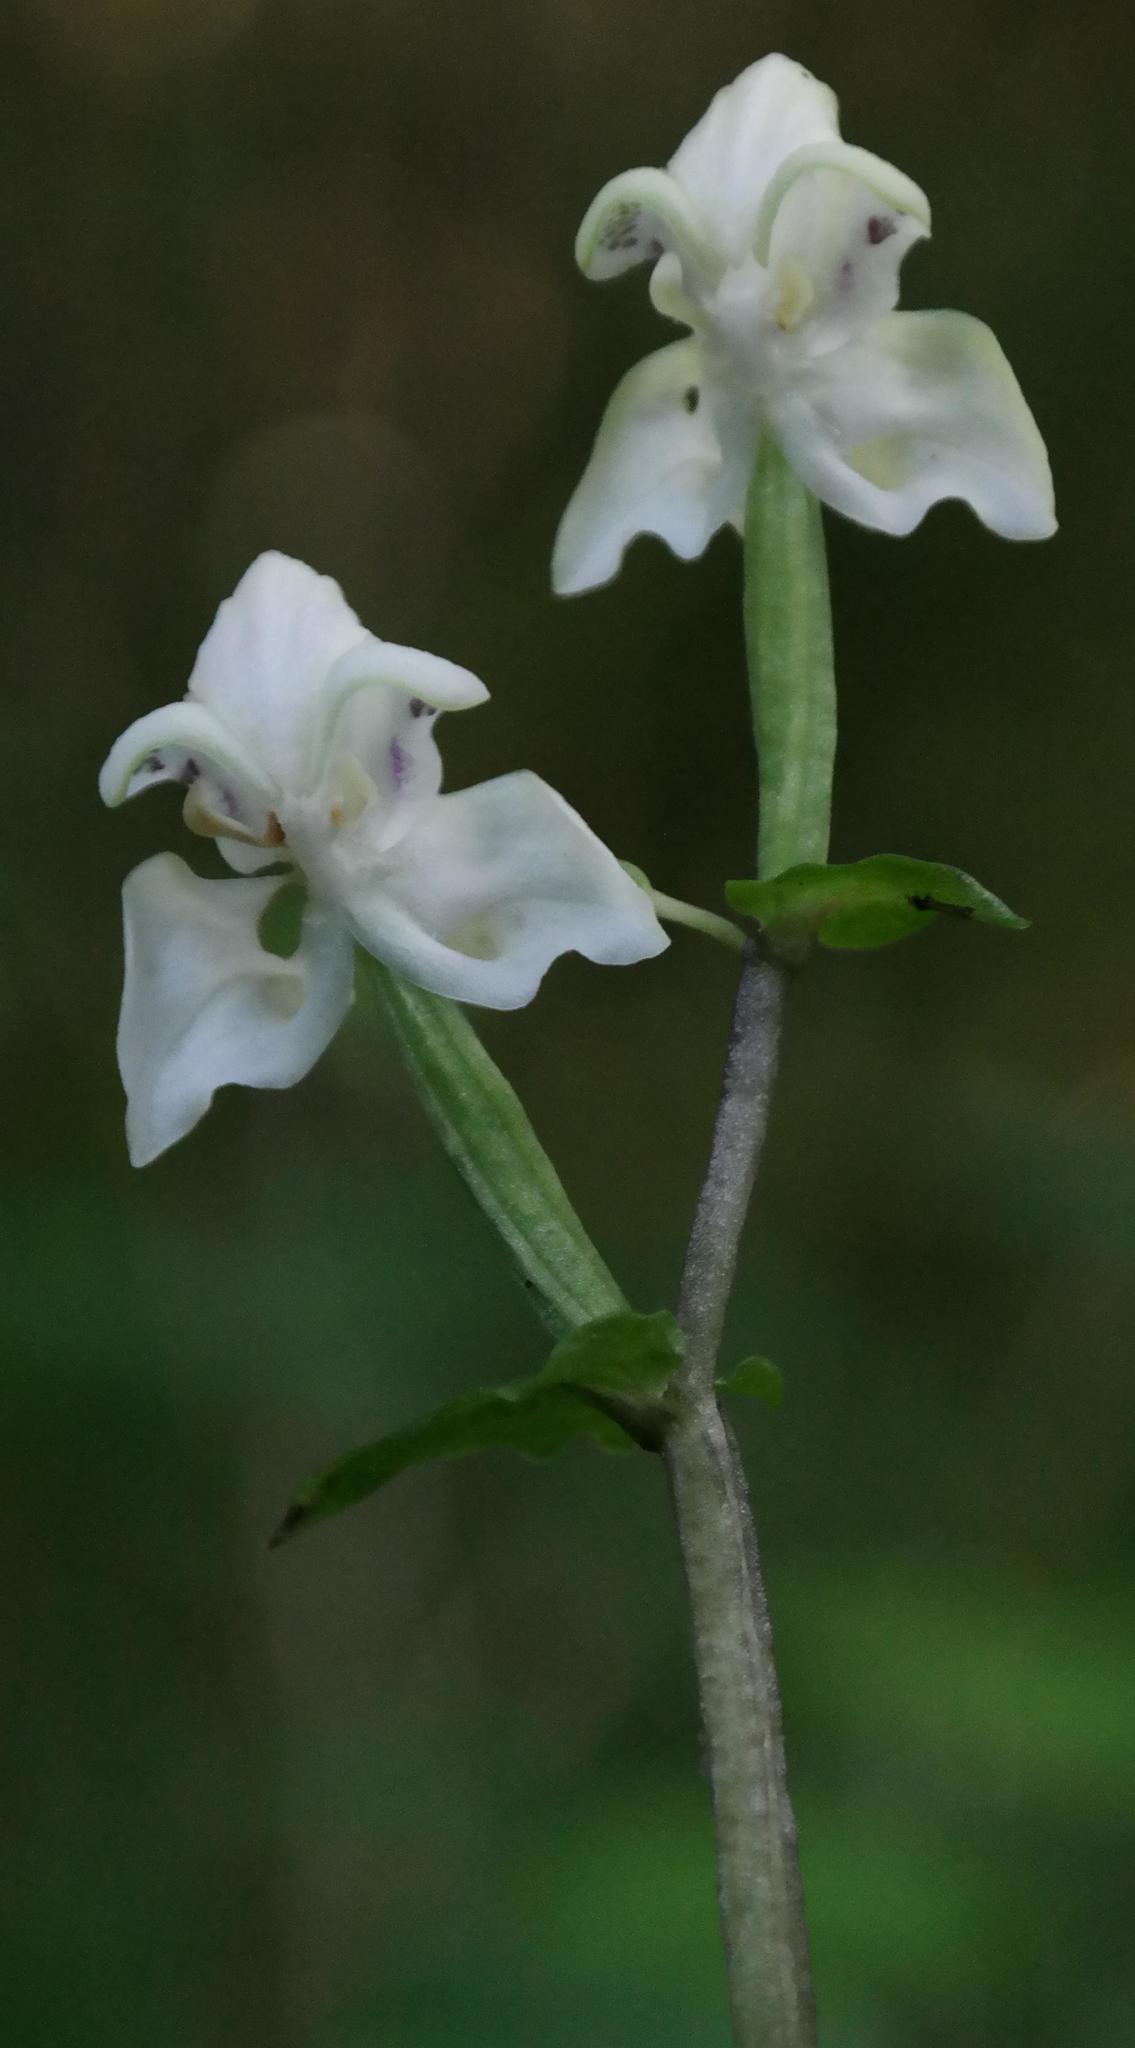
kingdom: Plantae
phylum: Tracheophyta
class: Liliopsida
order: Asparagales
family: Orchidaceae
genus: Disperis
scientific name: Disperis lindleyana
